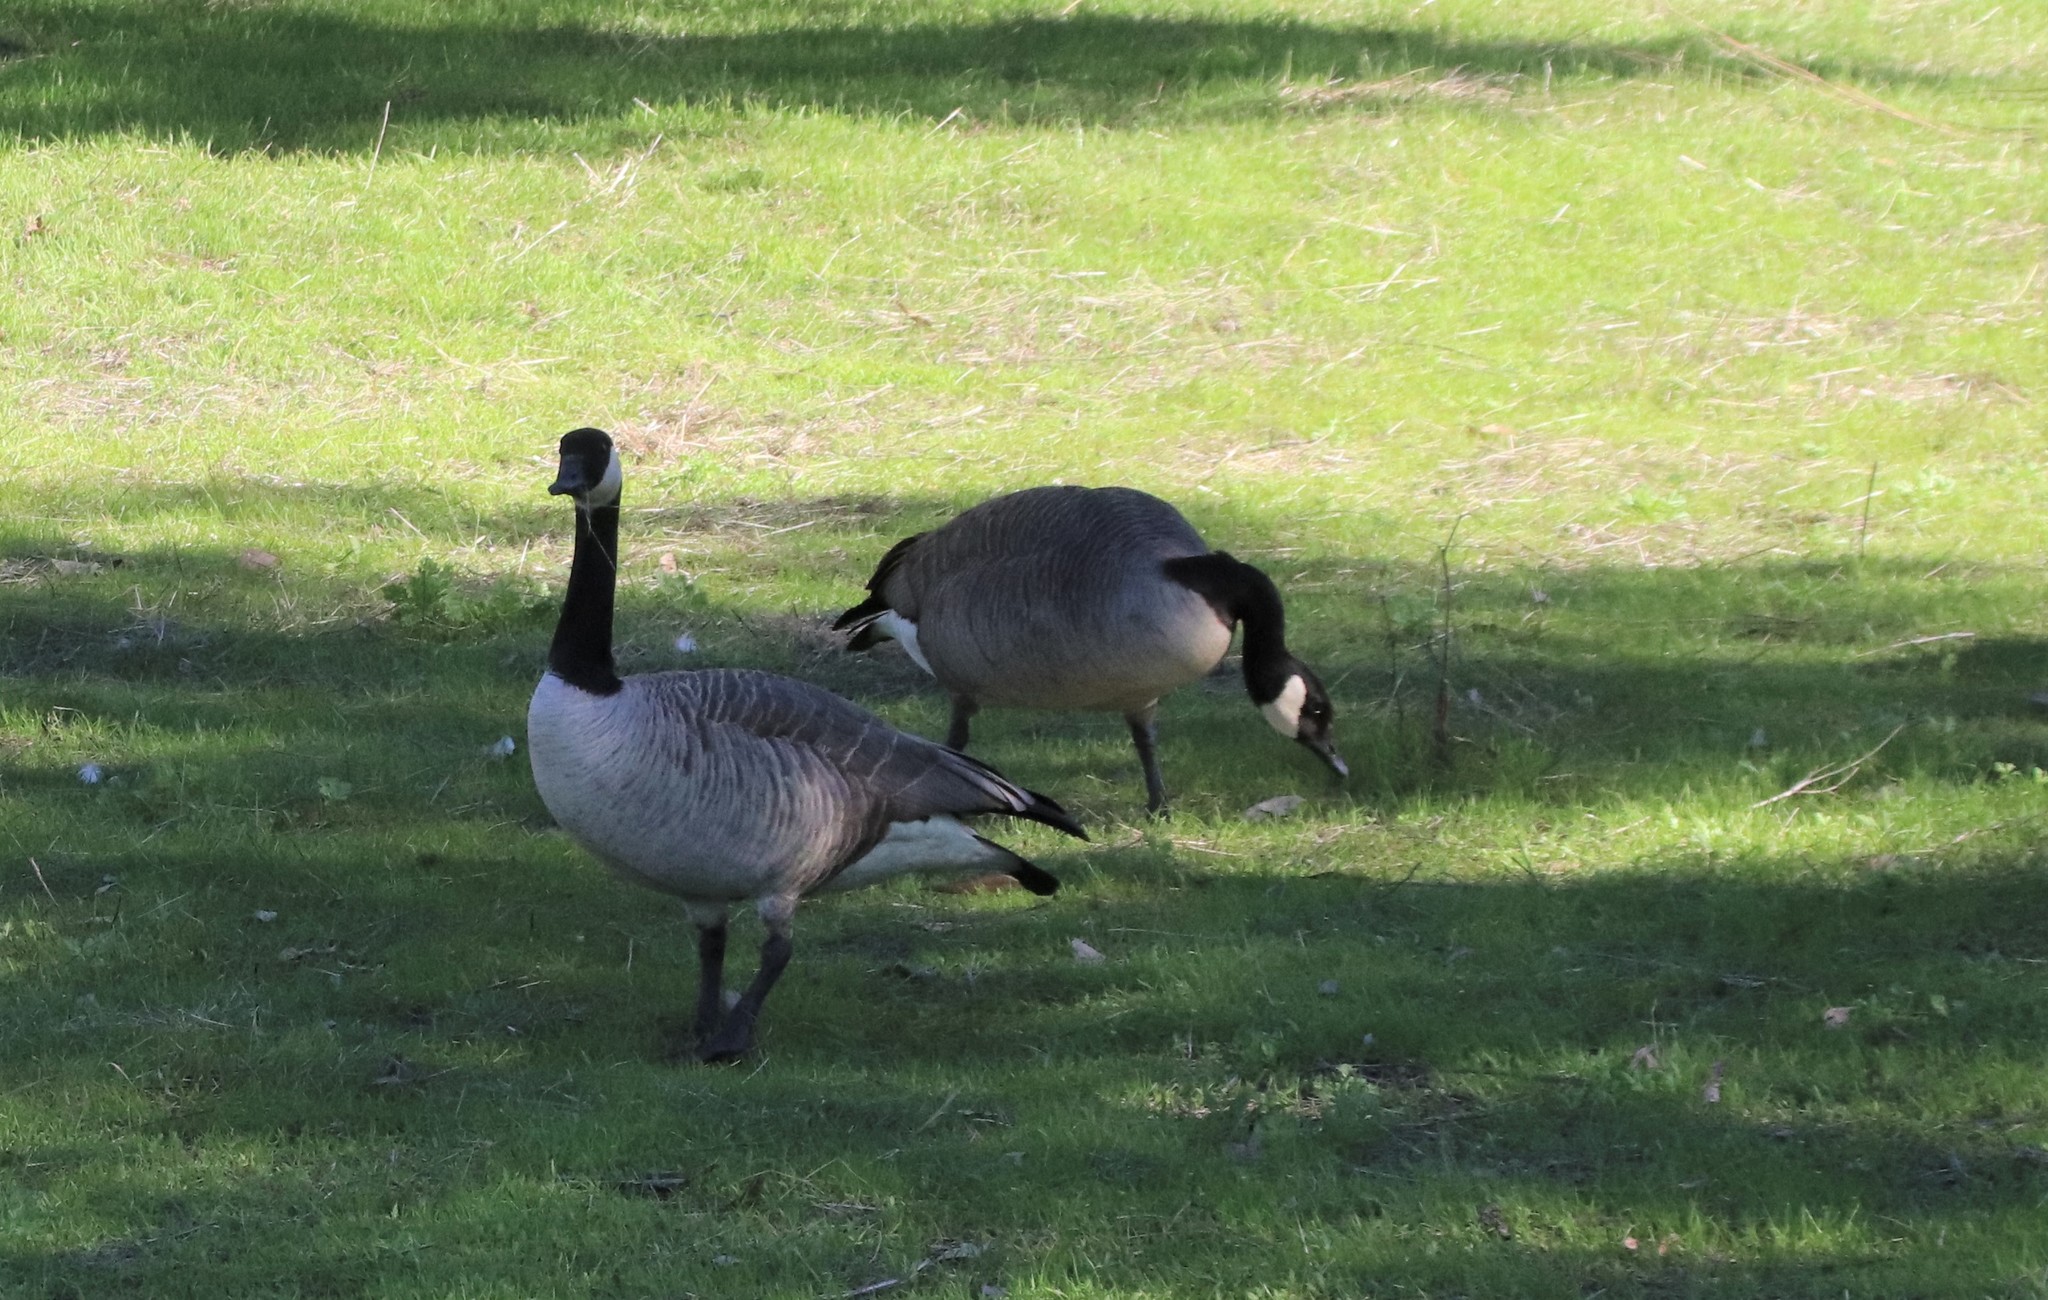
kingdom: Animalia
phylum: Chordata
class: Aves
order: Anseriformes
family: Anatidae
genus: Branta
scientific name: Branta canadensis
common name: Canada goose
